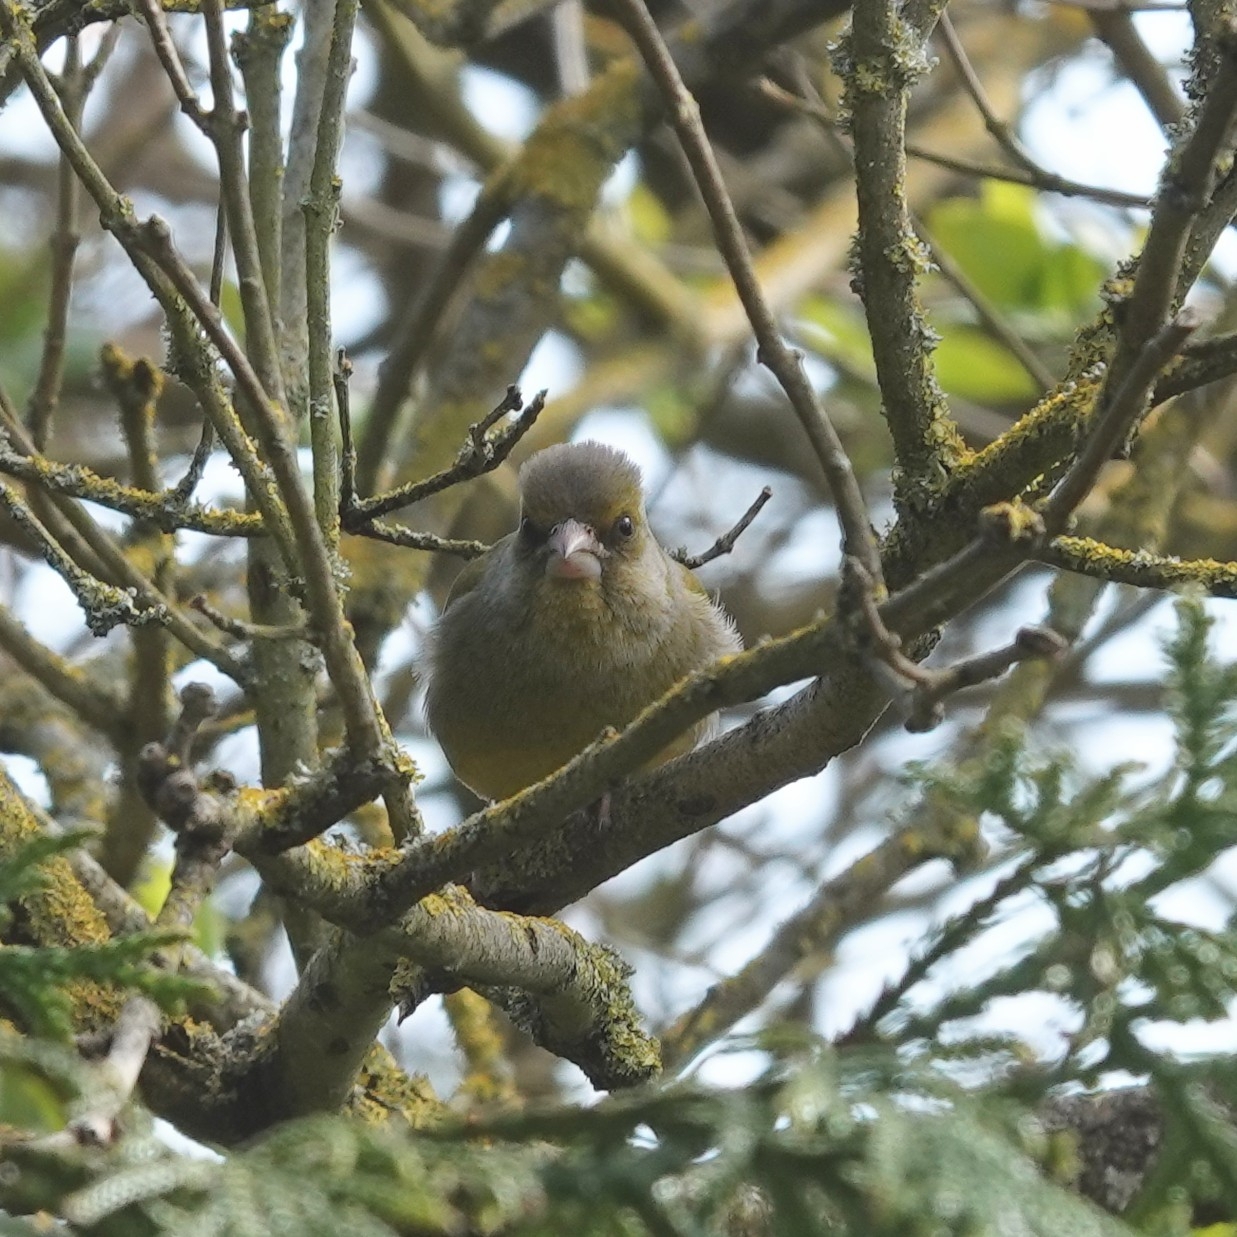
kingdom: Plantae
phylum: Tracheophyta
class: Liliopsida
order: Poales
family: Poaceae
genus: Chloris
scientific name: Chloris chloris
